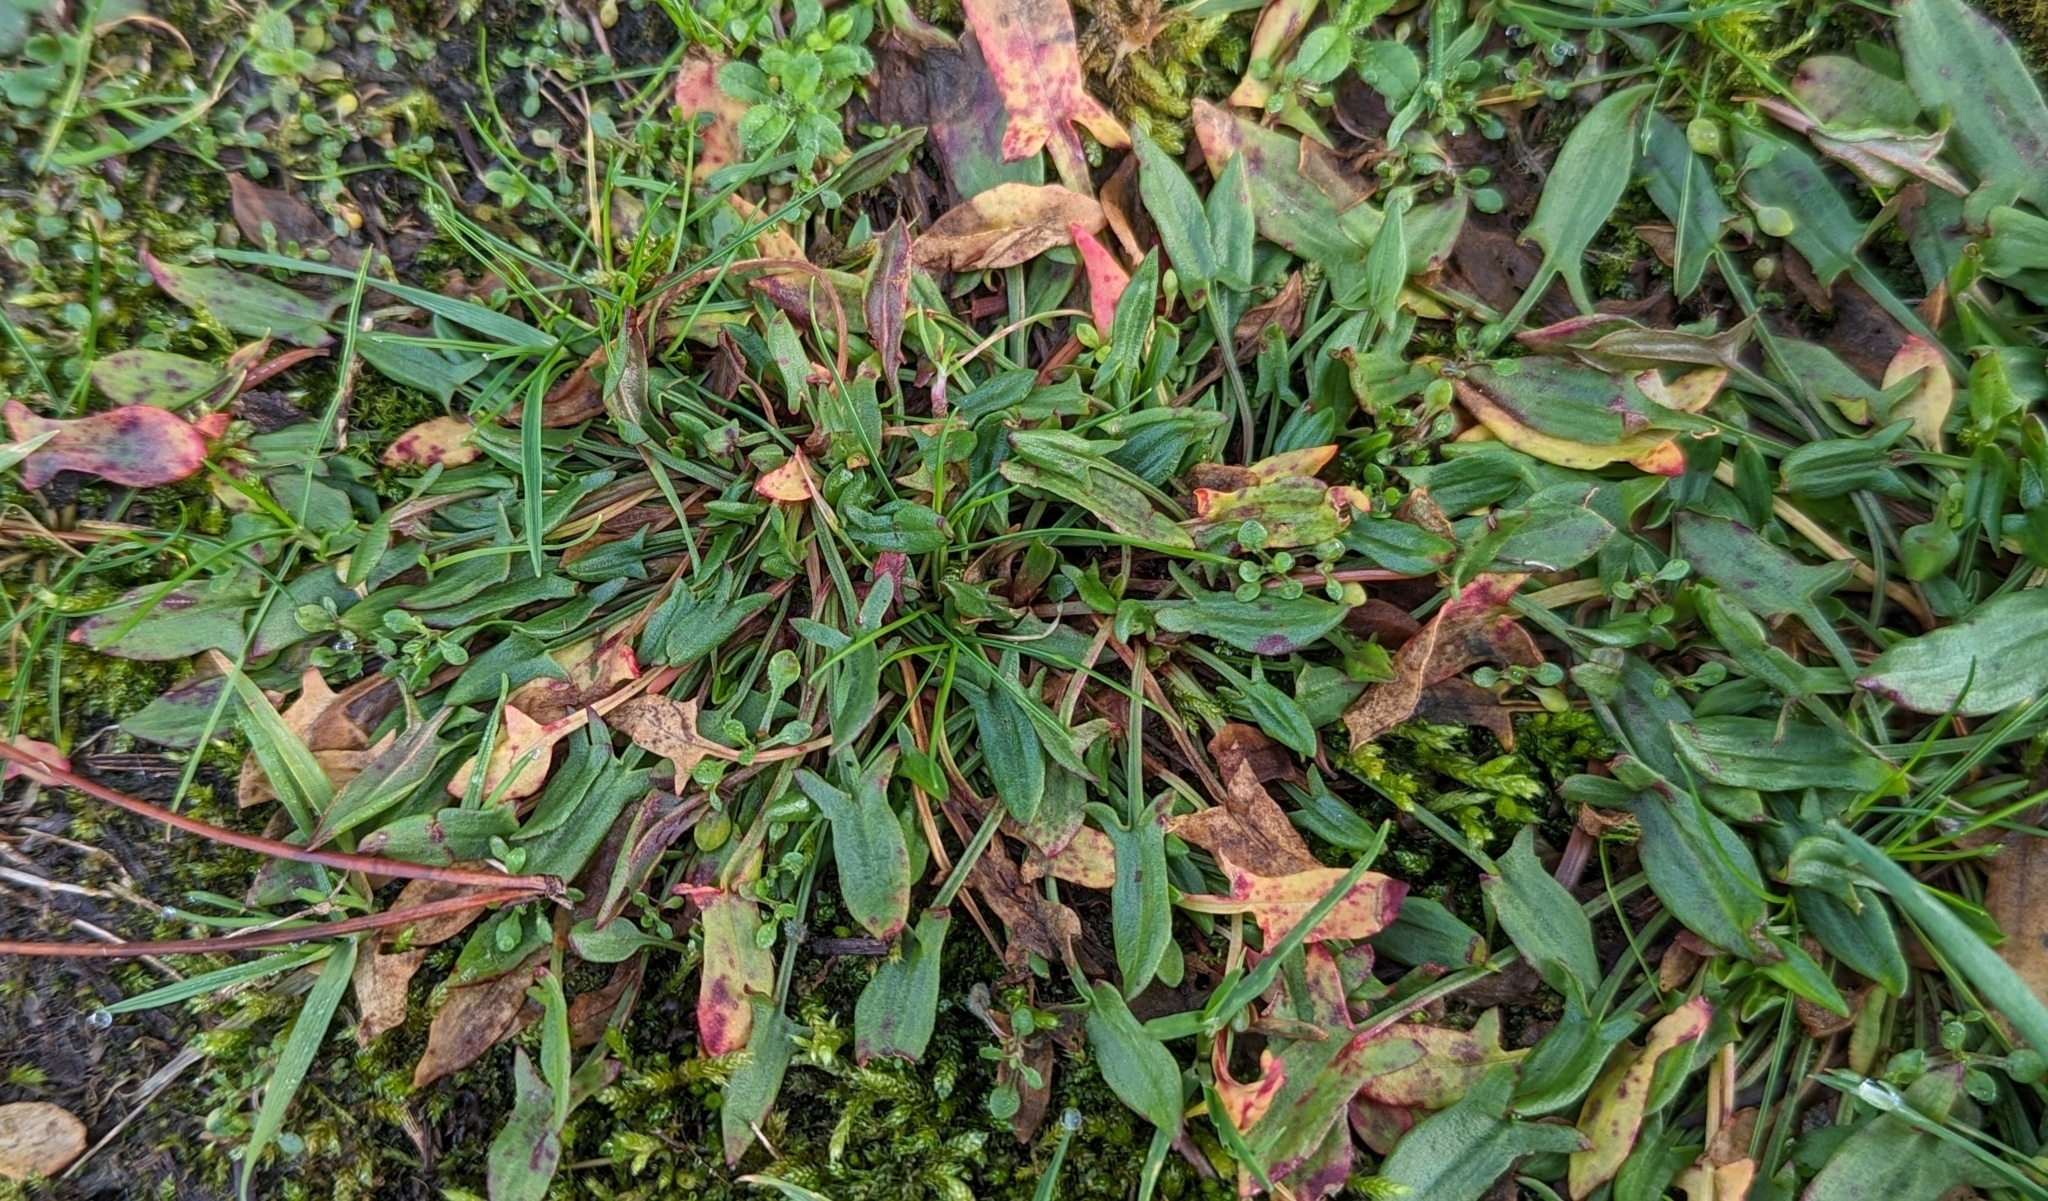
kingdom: Plantae
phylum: Tracheophyta
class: Magnoliopsida
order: Caryophyllales
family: Polygonaceae
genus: Rumex
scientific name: Rumex acetosella
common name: Common sheep sorrel
